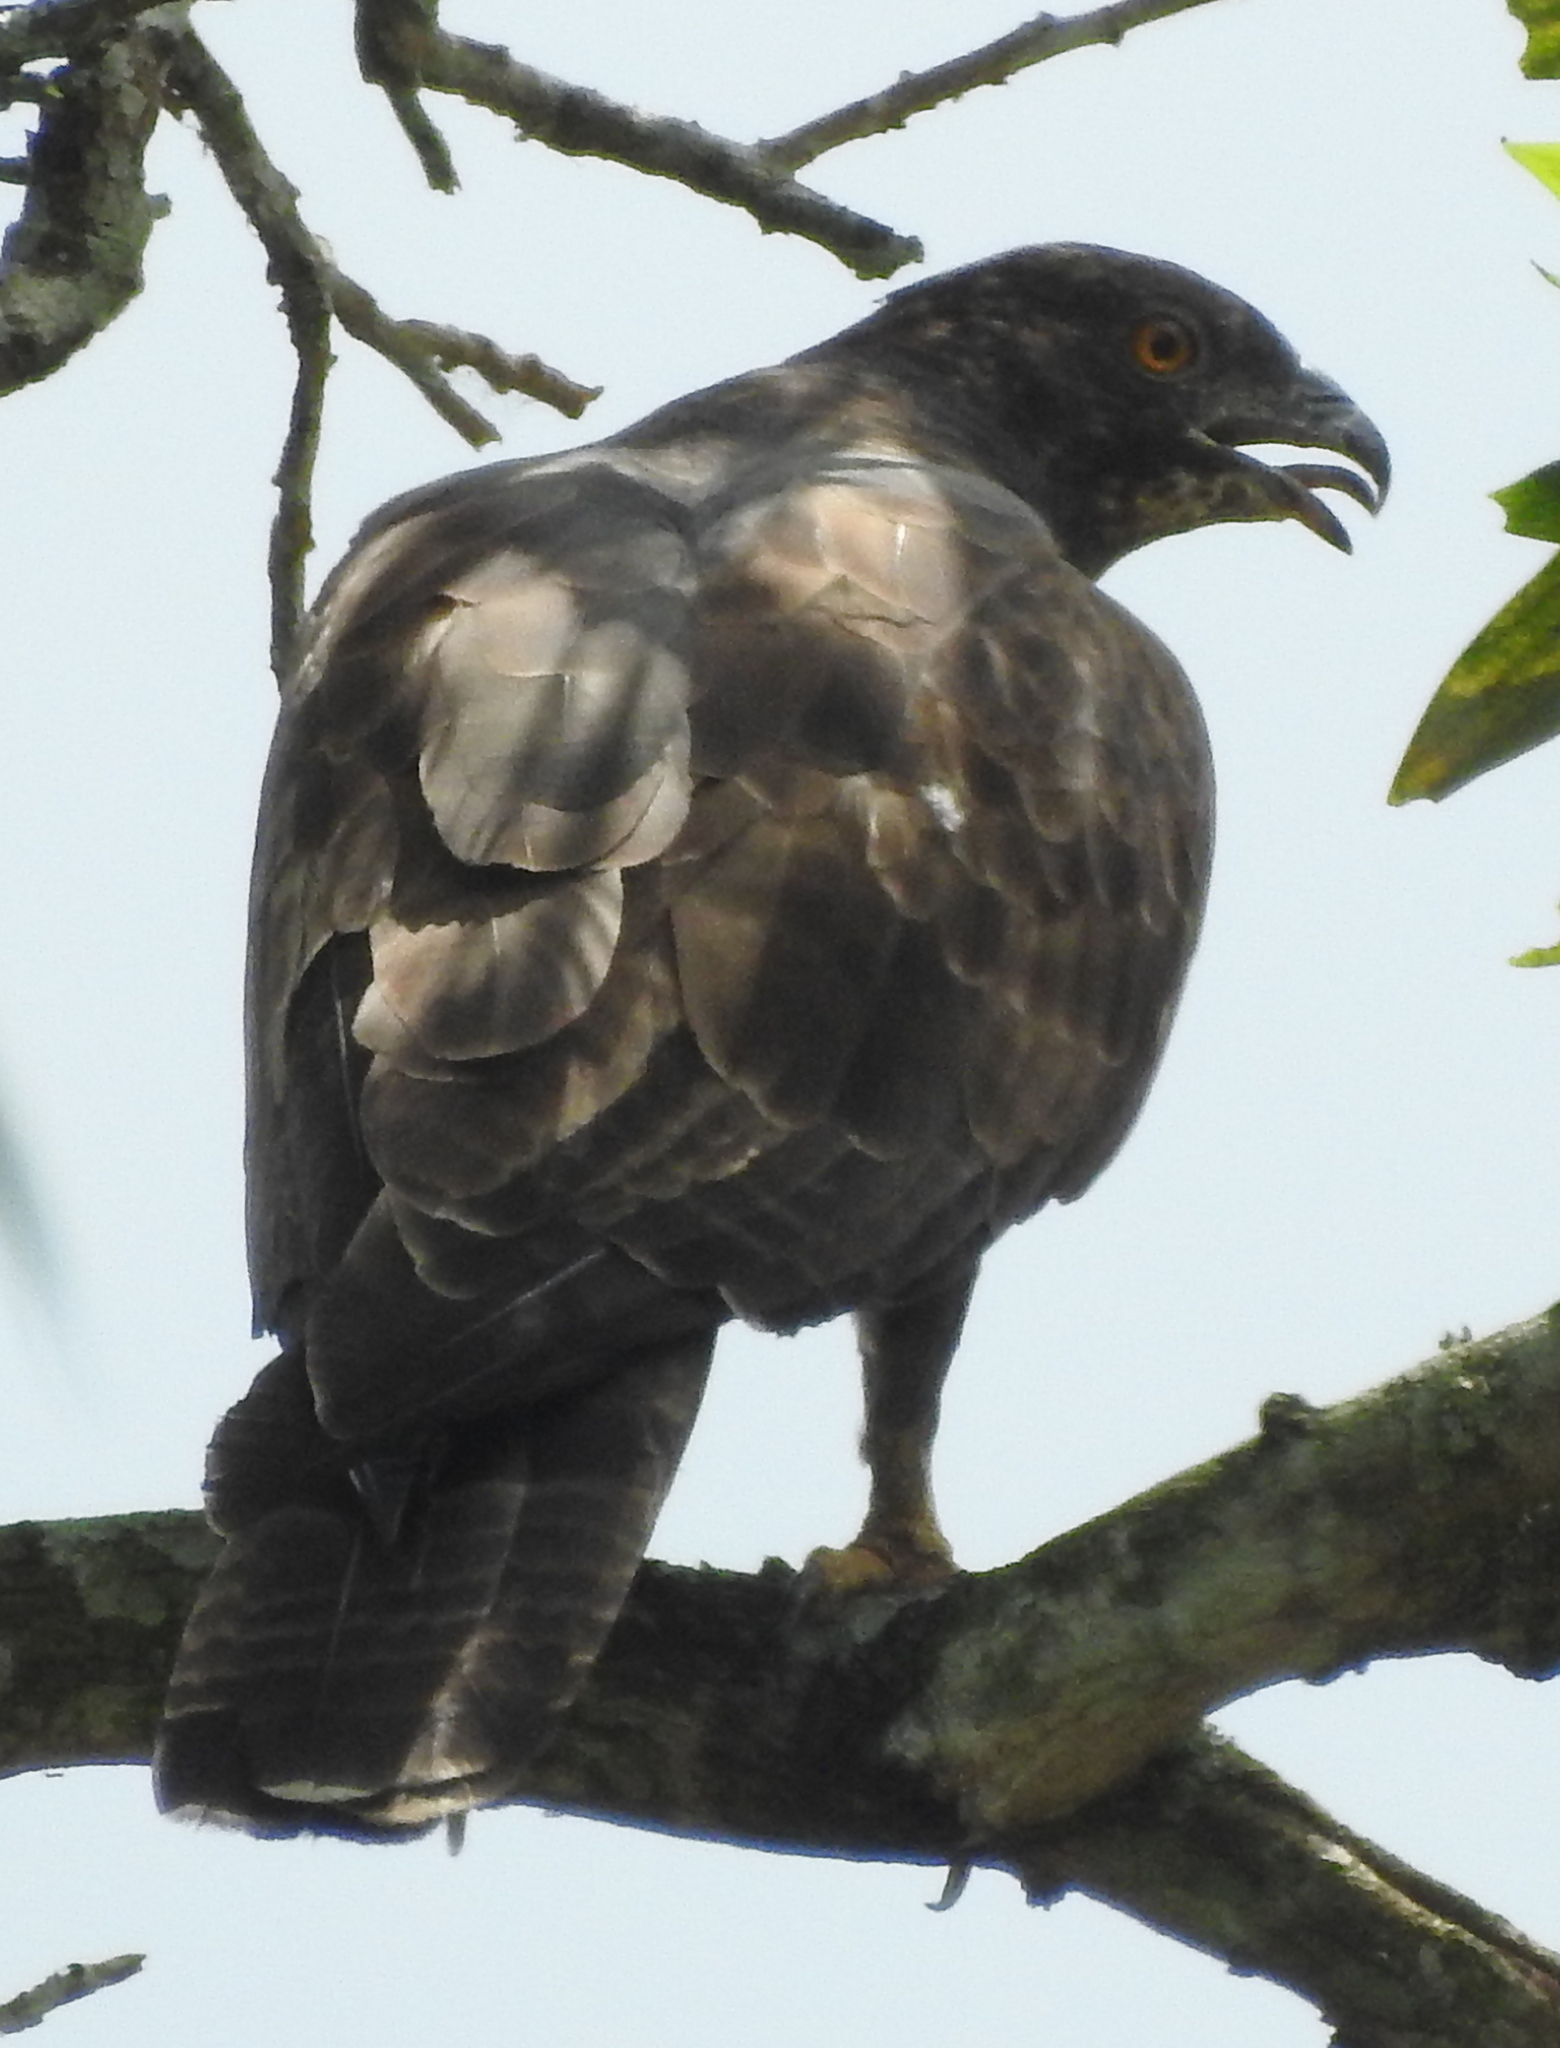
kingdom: Animalia
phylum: Chordata
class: Aves
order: Accipitriformes
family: Accipitridae
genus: Pernis
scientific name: Pernis ptilorhynchus
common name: Crested honey buzzard
